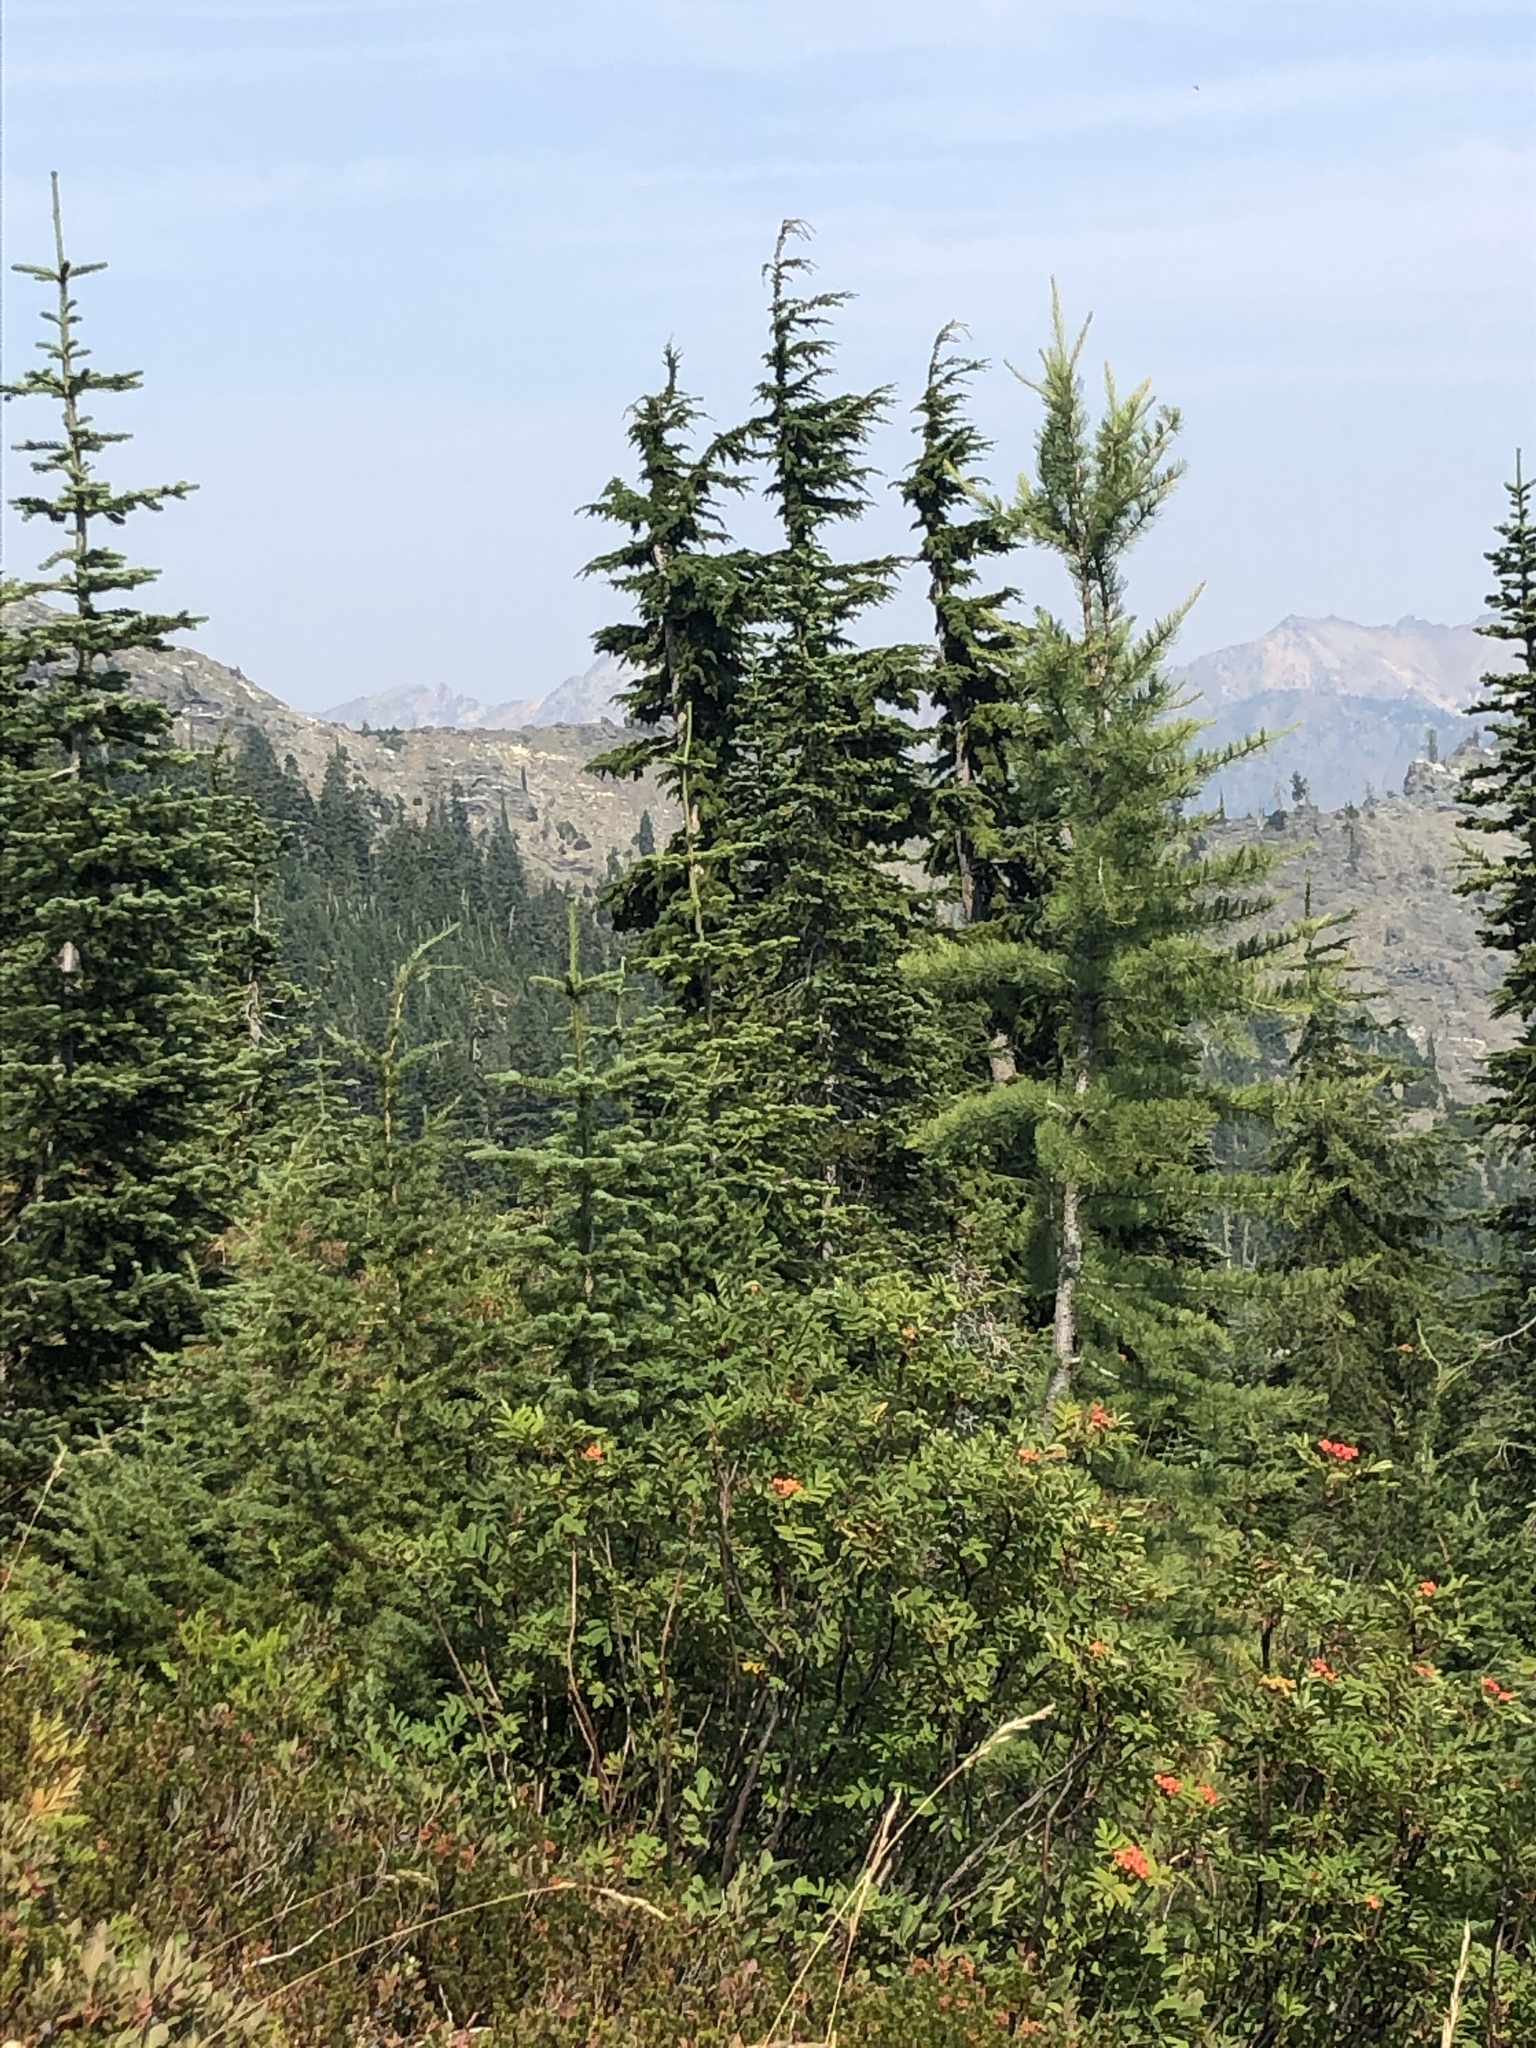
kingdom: Plantae
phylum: Tracheophyta
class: Pinopsida
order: Pinales
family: Pinaceae
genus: Larix
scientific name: Larix lyallii
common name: Alpine larch
